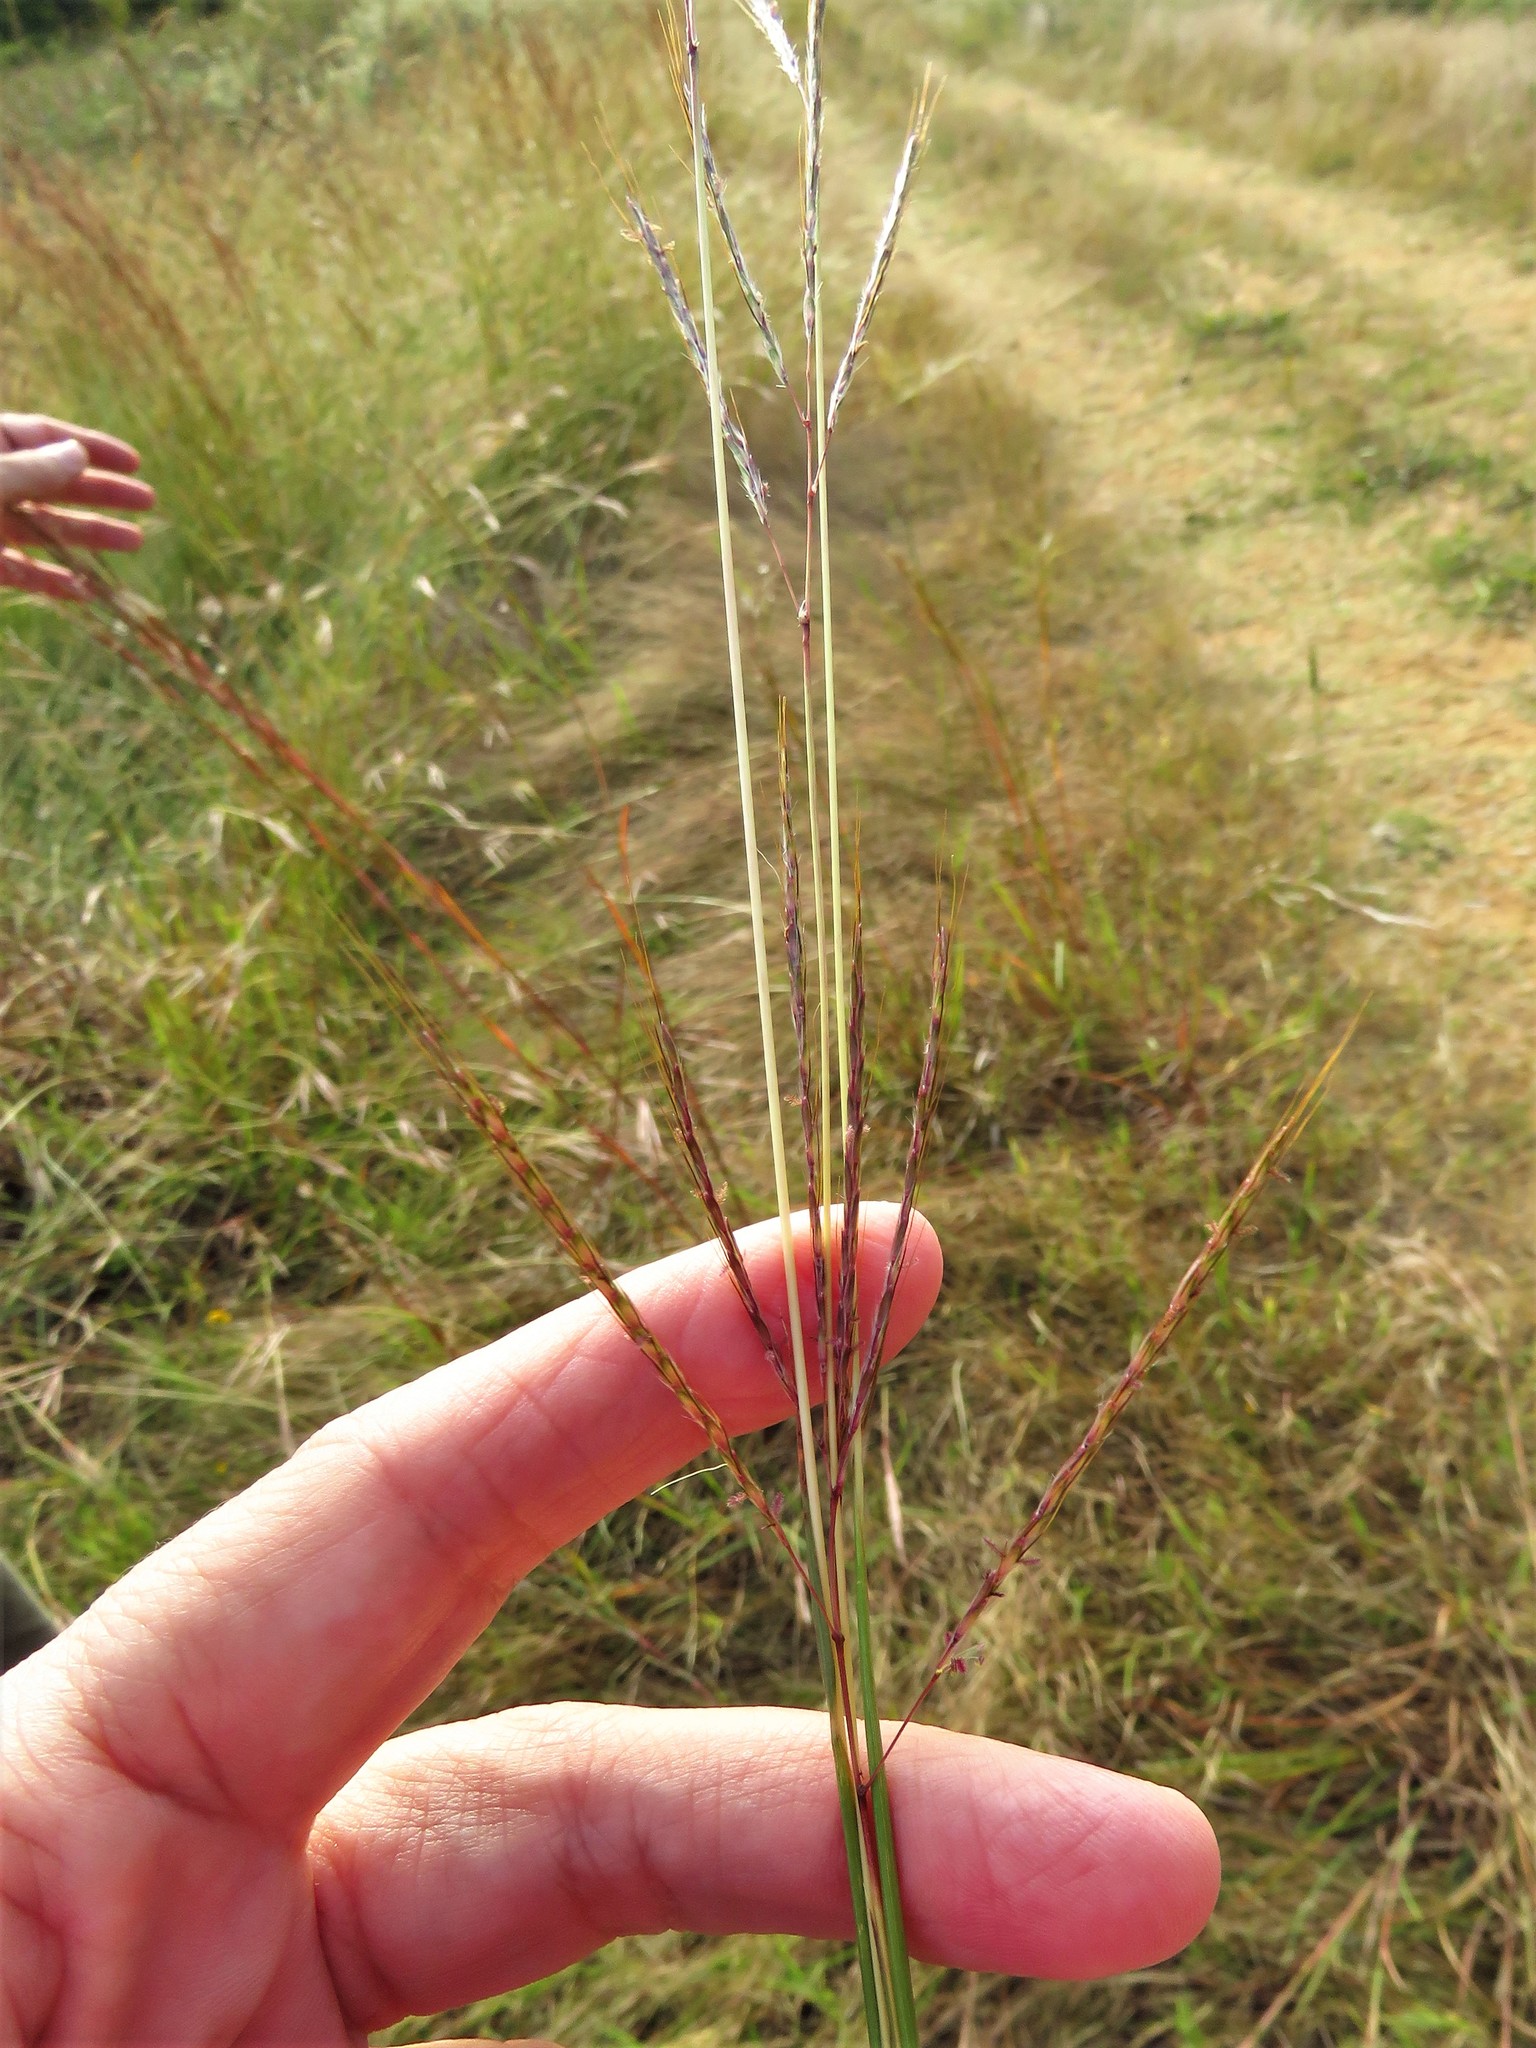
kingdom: Plantae
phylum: Tracheophyta
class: Liliopsida
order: Poales
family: Poaceae
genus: Bothriochloa
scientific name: Bothriochloa ischaemum
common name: Yellow bluestem
